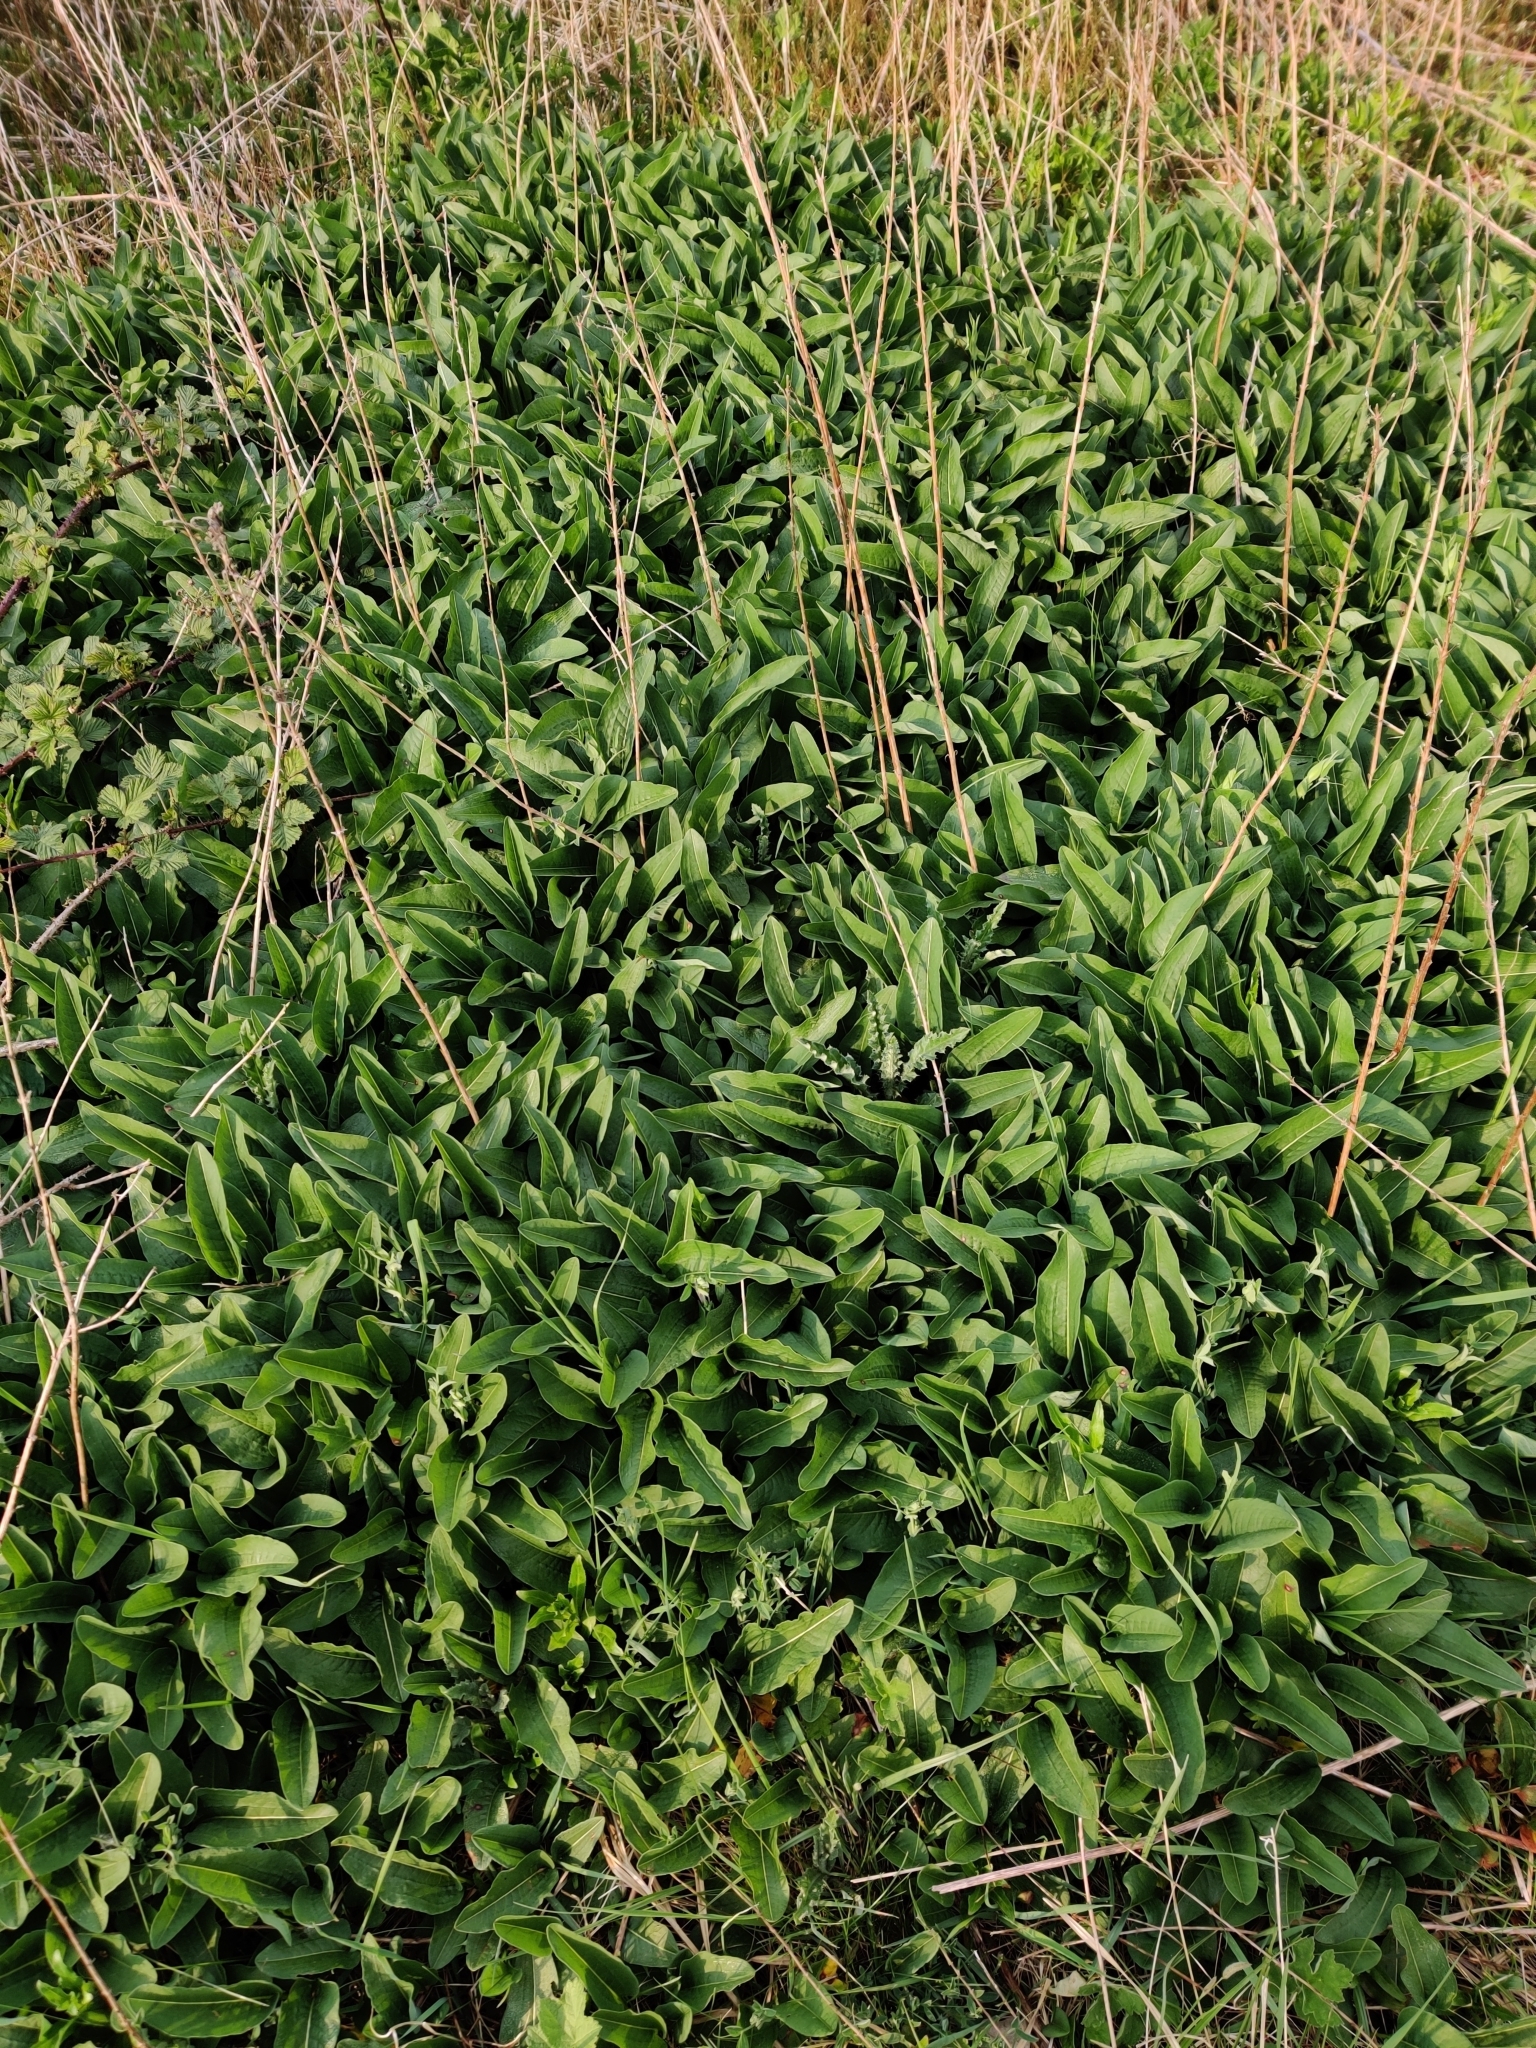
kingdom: Plantae
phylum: Tracheophyta
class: Magnoliopsida
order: Caryophyllales
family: Polygonaceae
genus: Bistorta
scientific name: Bistorta officinalis
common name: Common bistort
